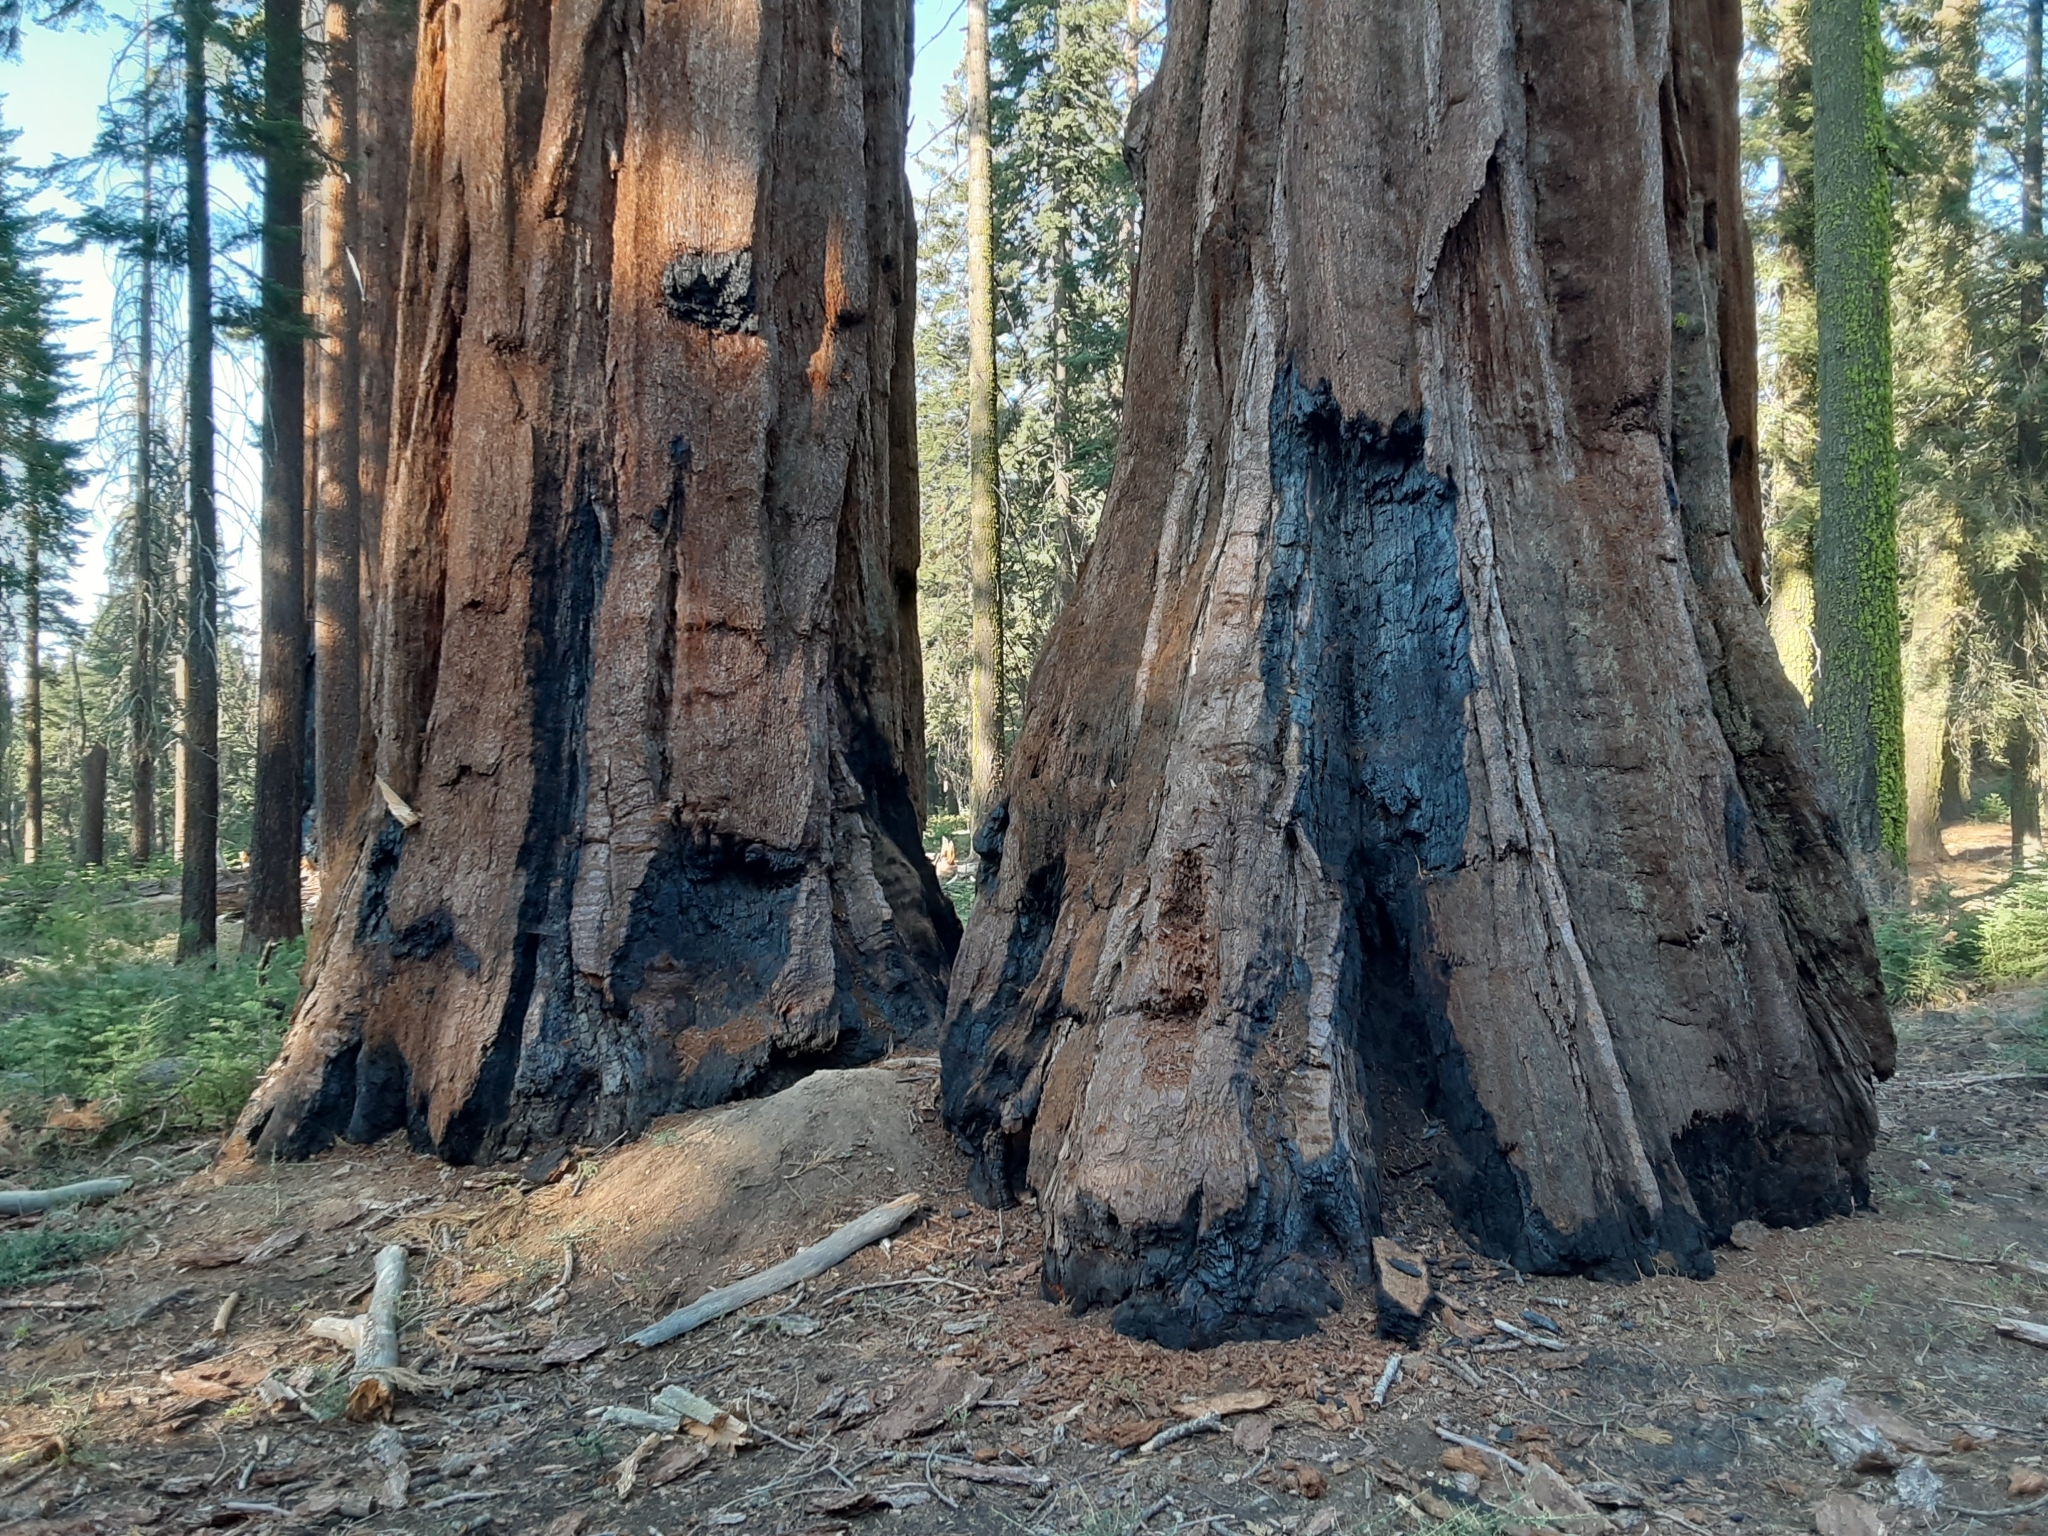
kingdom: Plantae
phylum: Tracheophyta
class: Pinopsida
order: Pinales
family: Cupressaceae
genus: Sequoiadendron
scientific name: Sequoiadendron giganteum
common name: Wellingtonia
